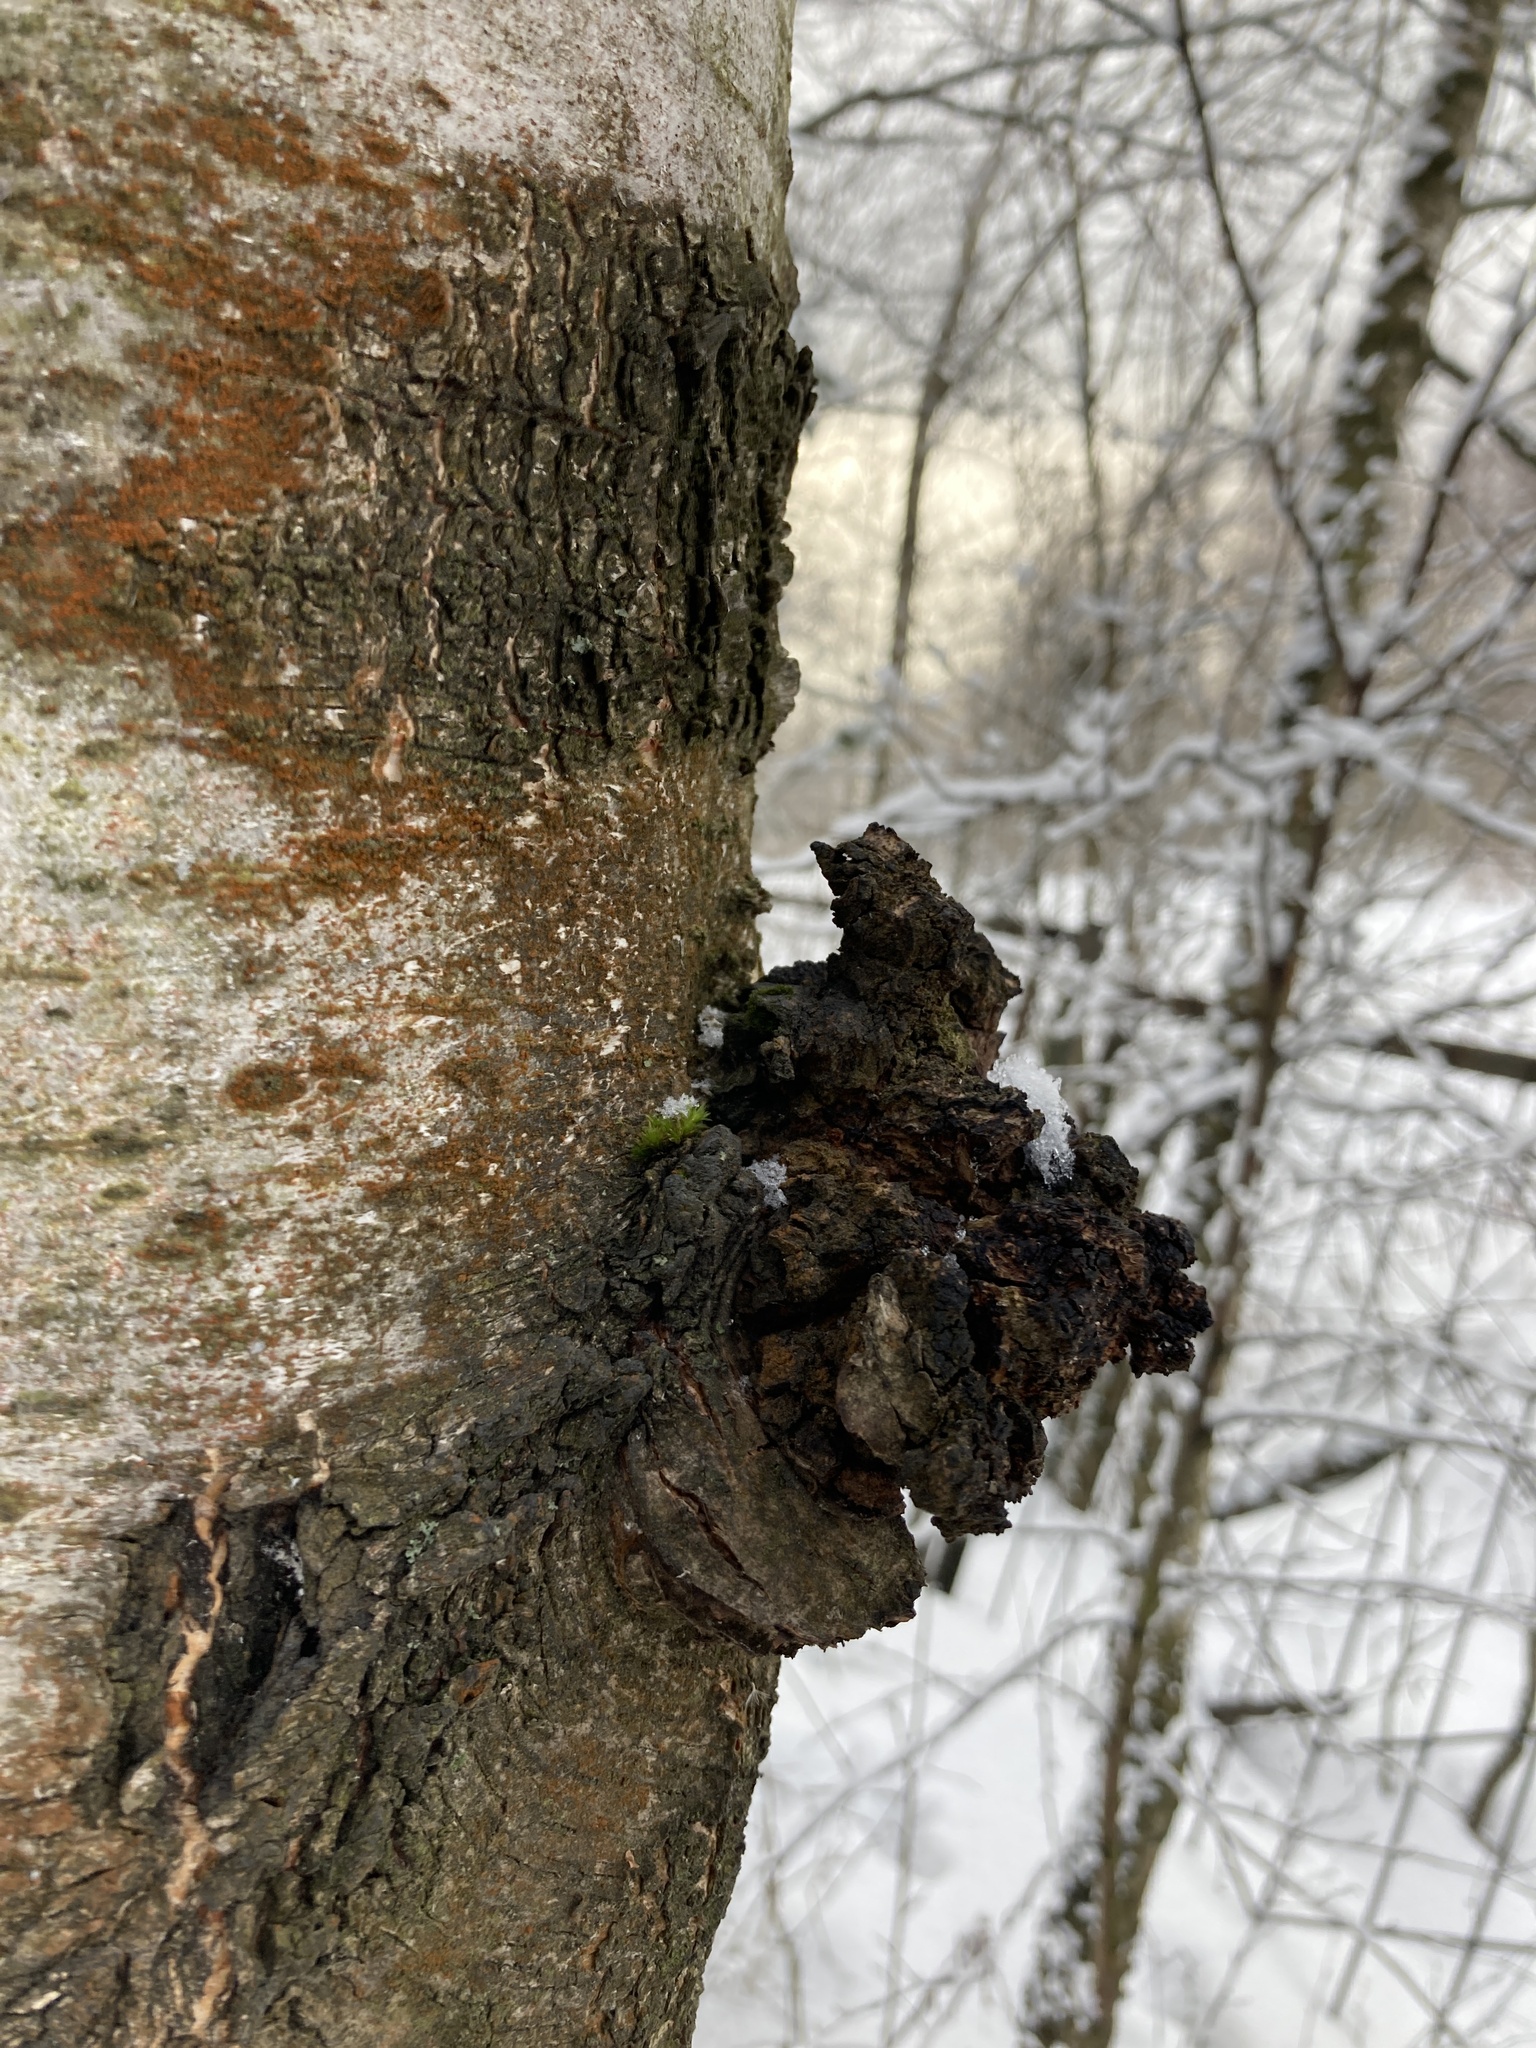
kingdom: Fungi
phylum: Basidiomycota
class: Agaricomycetes
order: Hymenochaetales
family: Hymenochaetaceae
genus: Inonotus
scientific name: Inonotus obliquus
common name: Chaga
